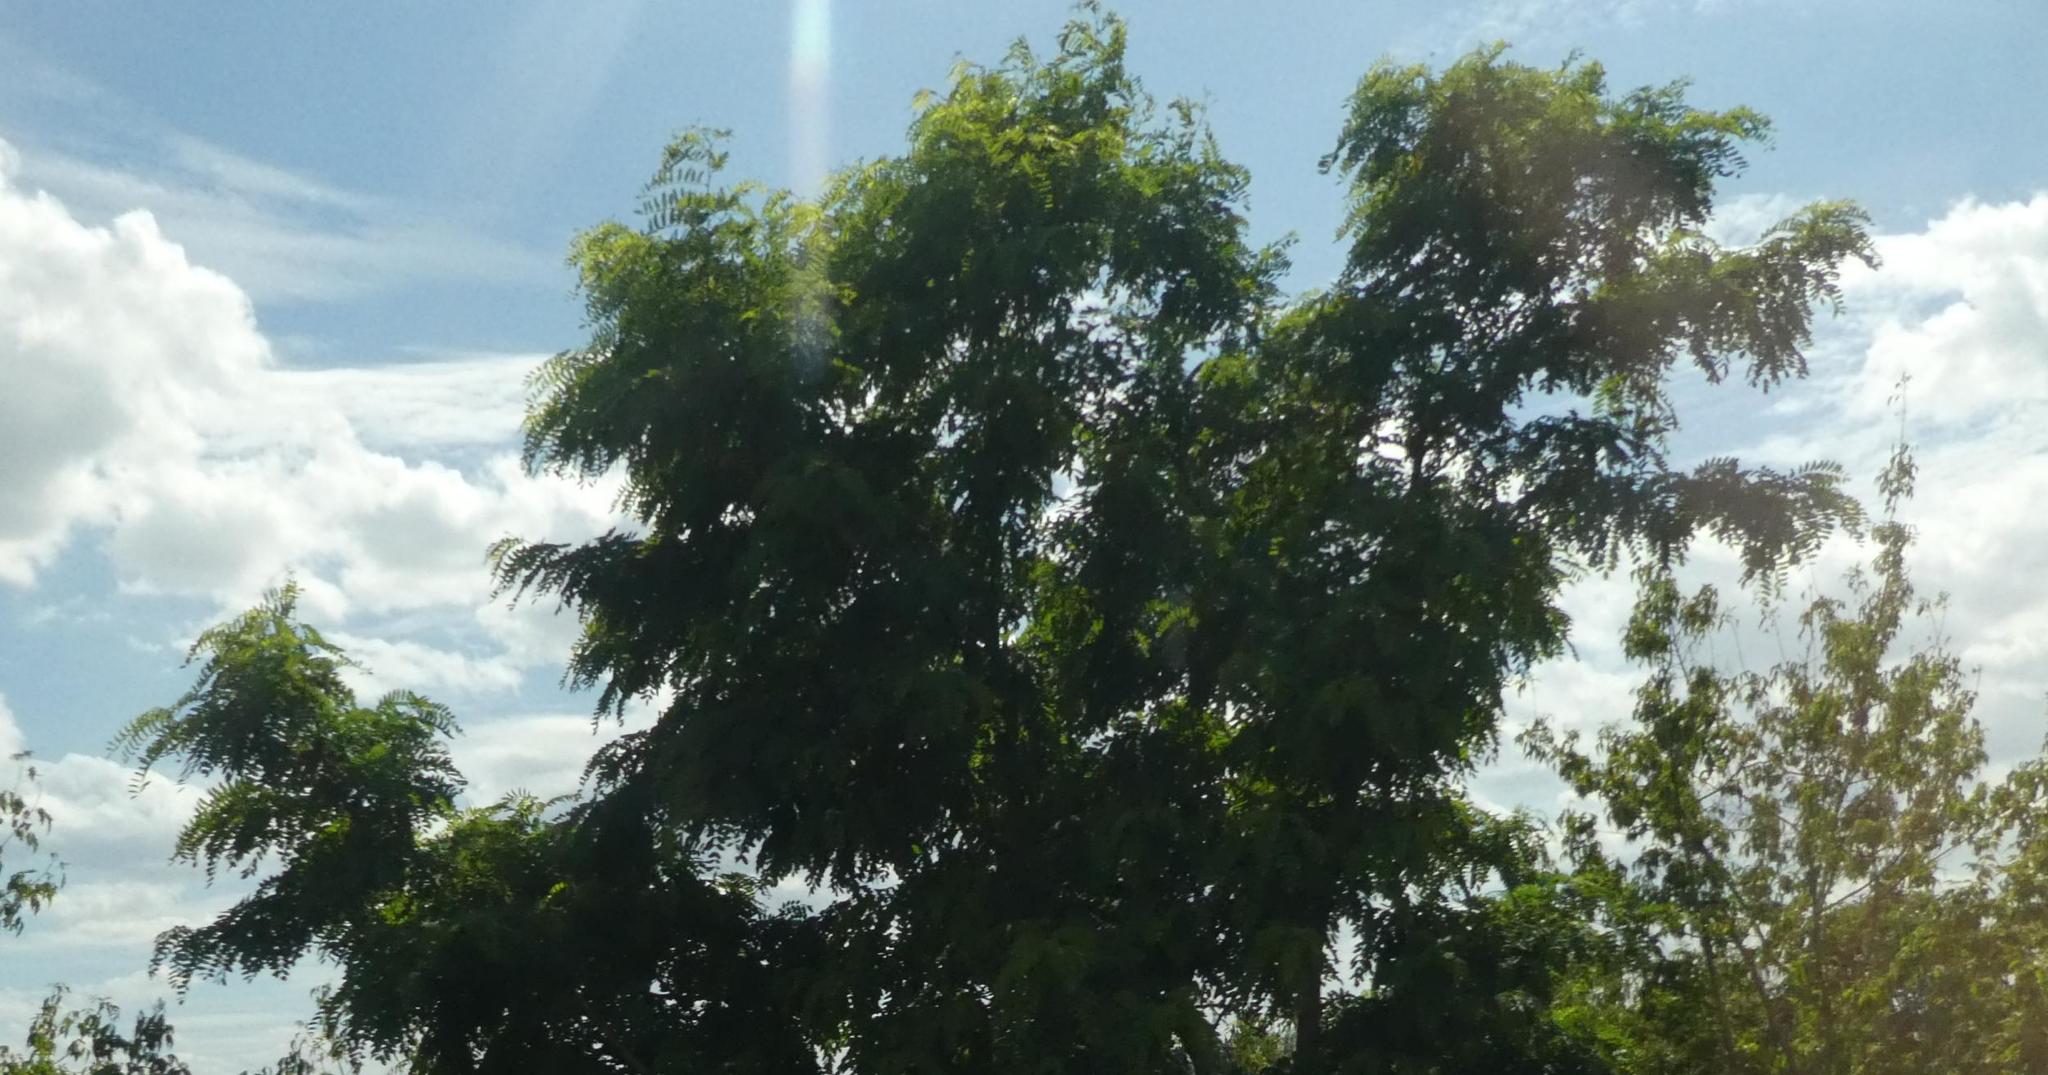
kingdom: Plantae
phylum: Tracheophyta
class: Magnoliopsida
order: Fabales
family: Fabaceae
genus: Robinia
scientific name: Robinia pseudoacacia
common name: Black locust
